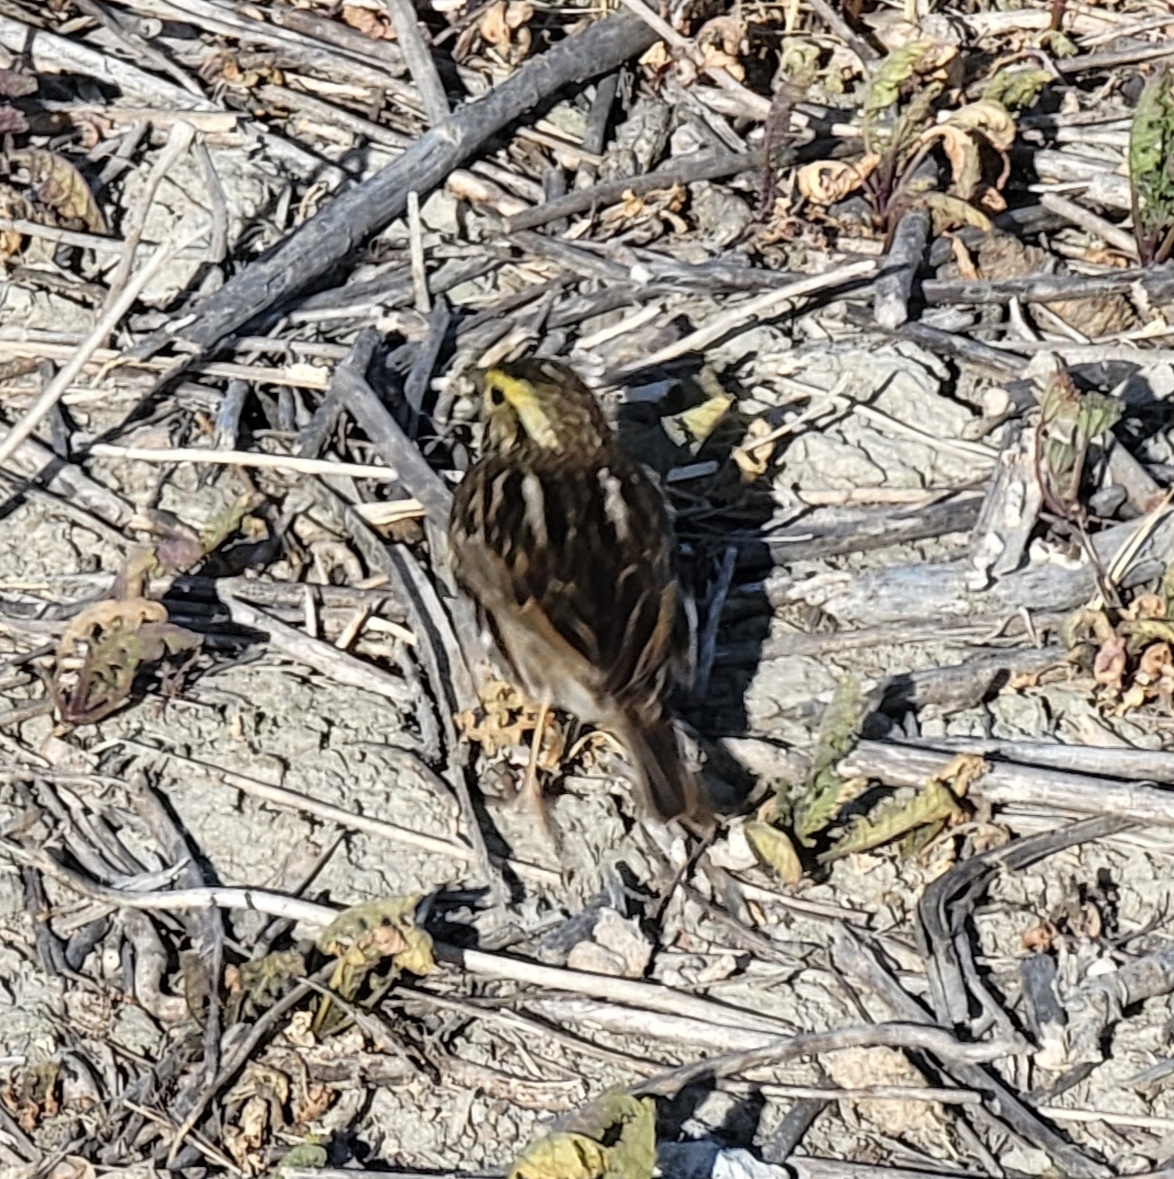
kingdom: Animalia
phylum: Chordata
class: Aves
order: Passeriformes
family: Passerellidae
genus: Passerculus
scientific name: Passerculus sandwichensis
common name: Savannah sparrow
